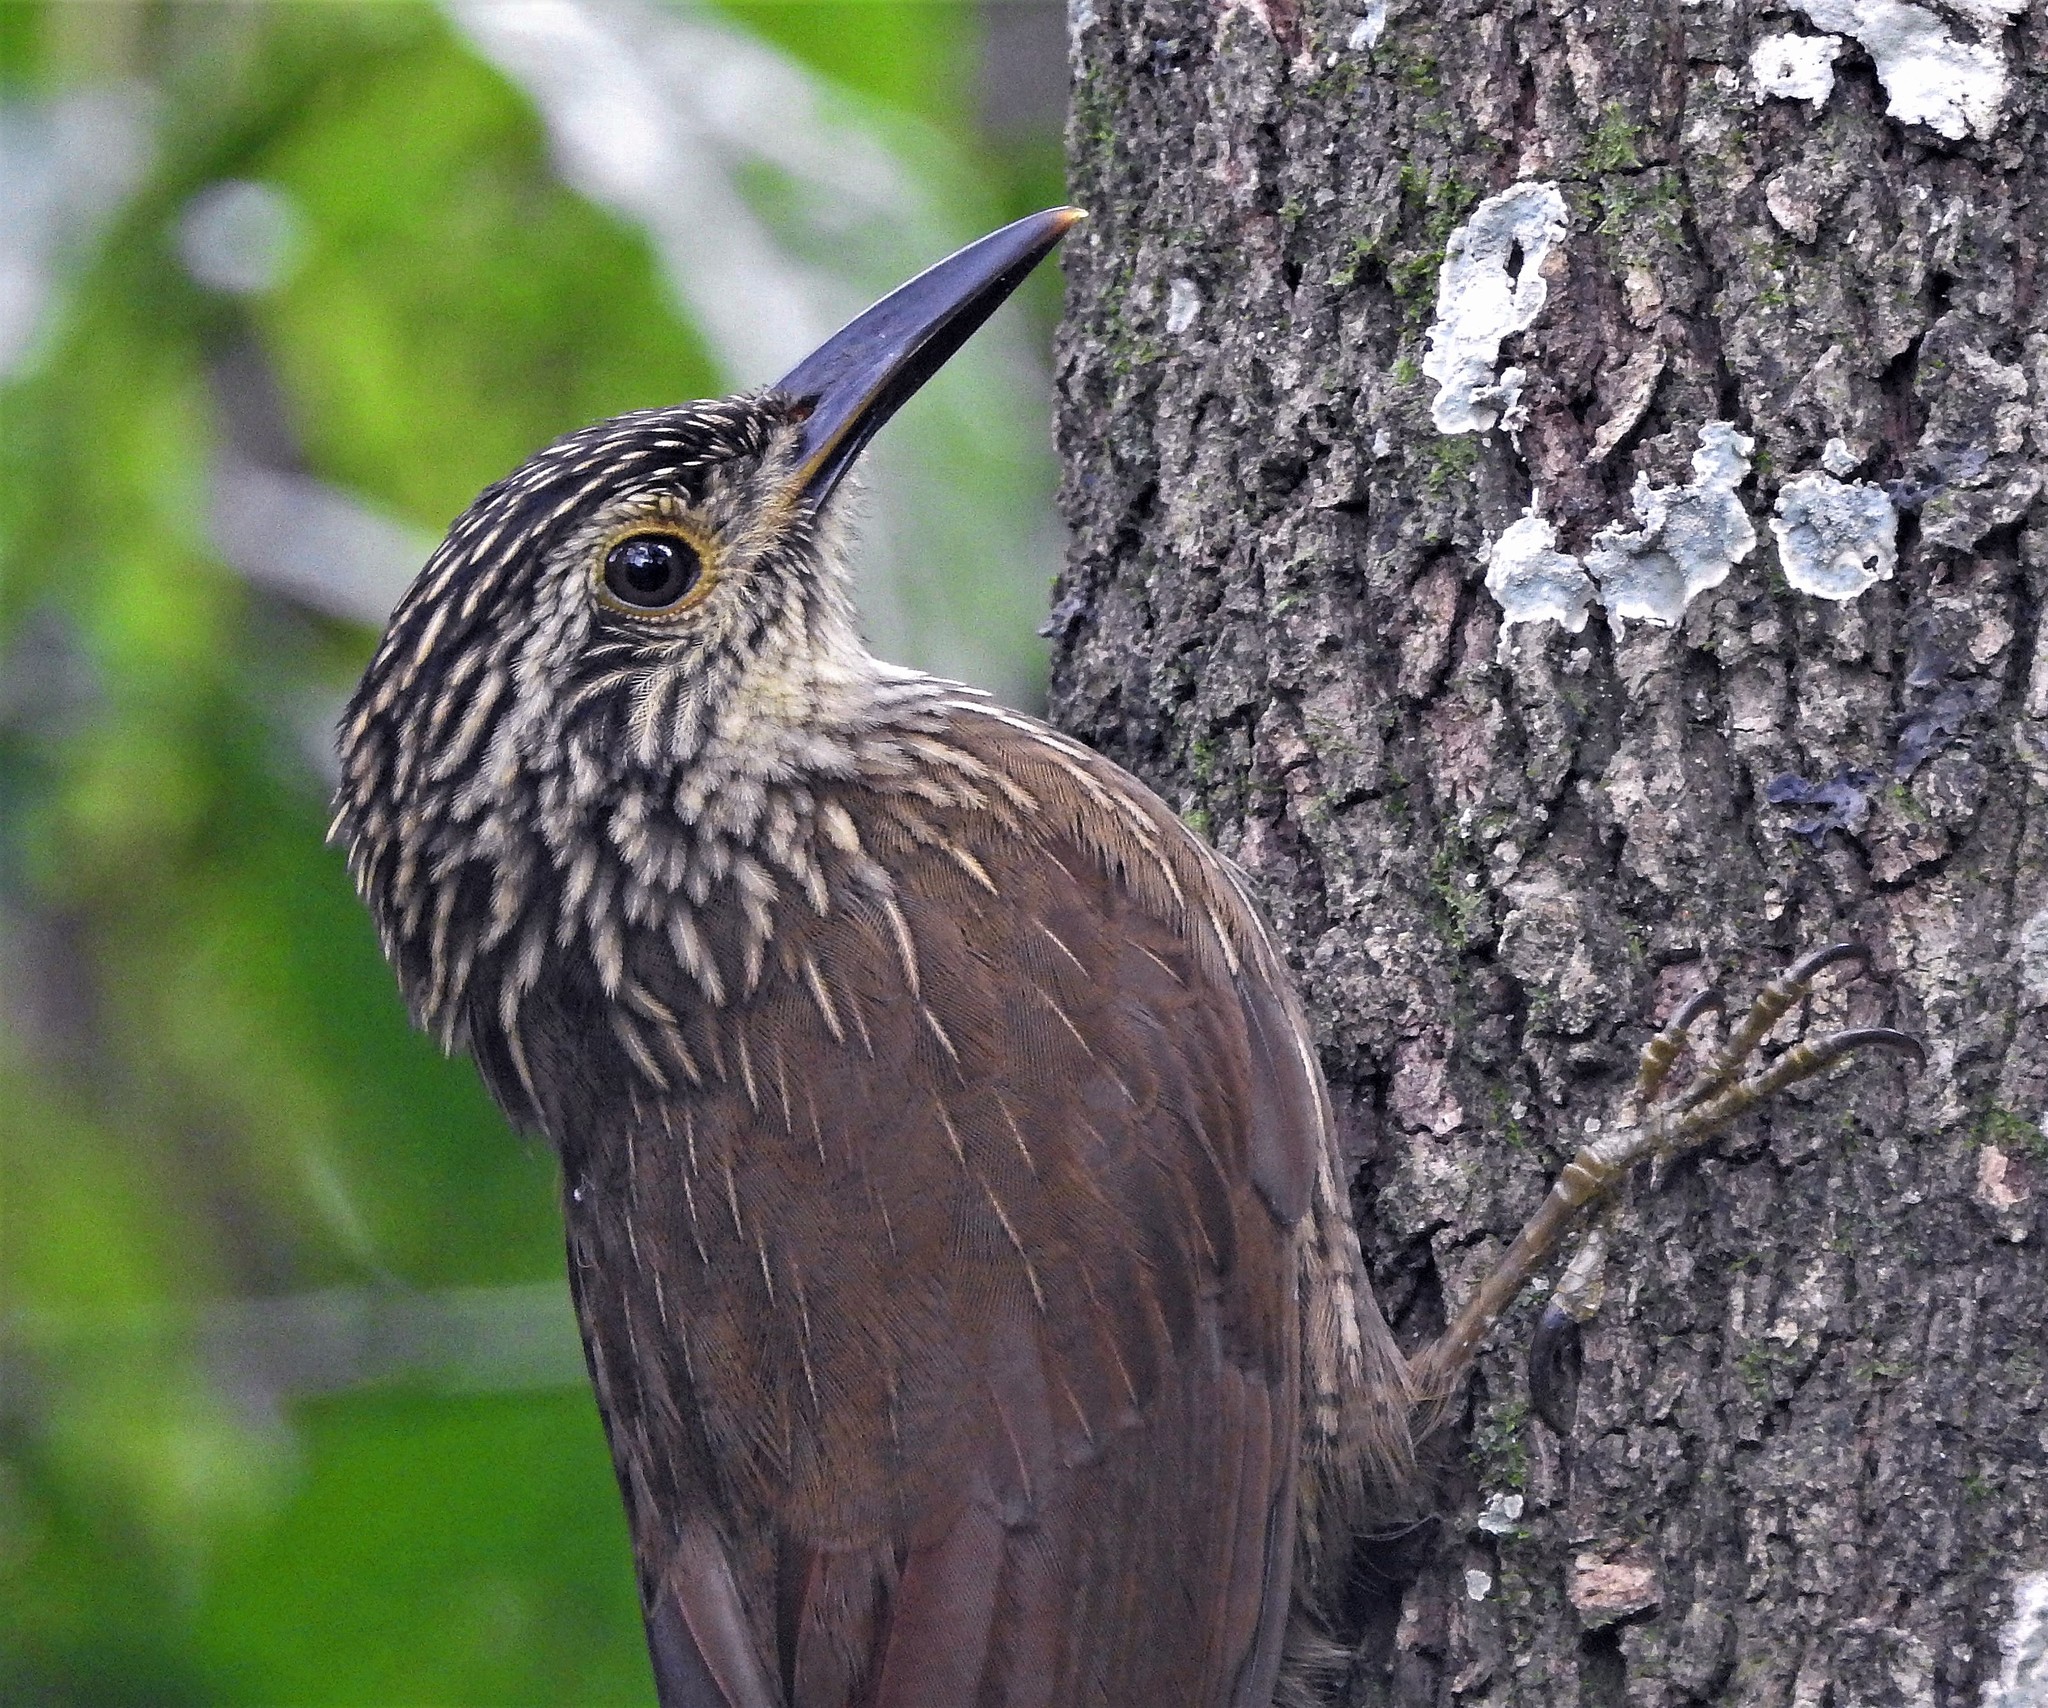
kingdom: Animalia
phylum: Chordata
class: Aves
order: Passeriformes
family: Furnariidae
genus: Dendrocolaptes
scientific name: Dendrocolaptes platyrostris
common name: Planalto woodcreeper
